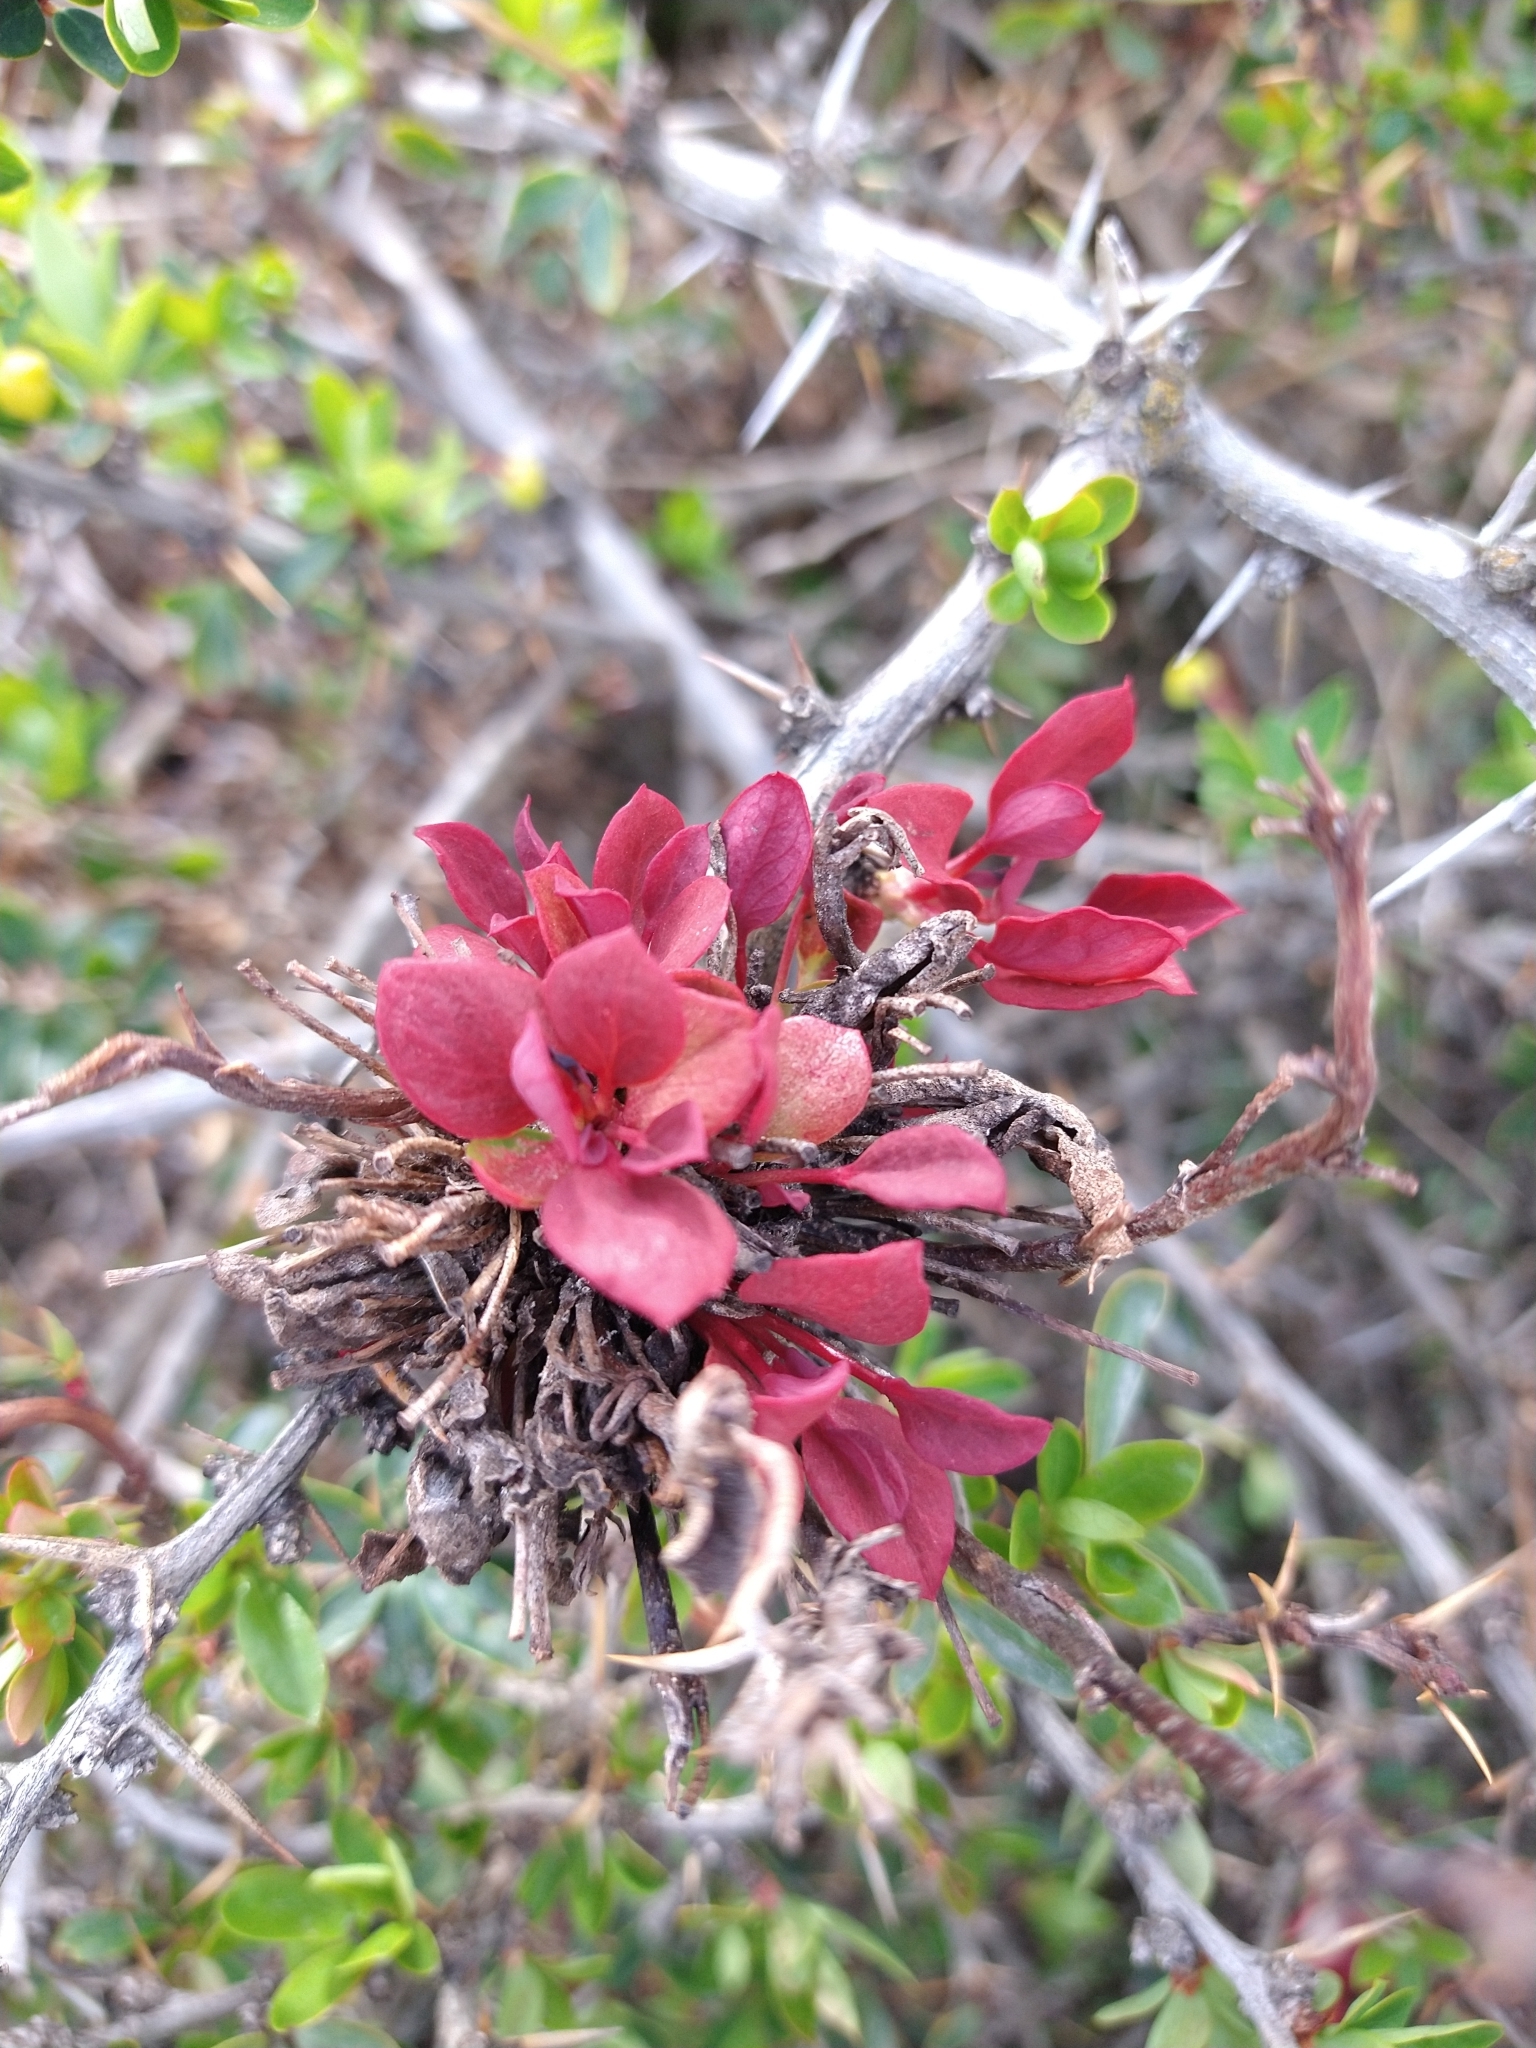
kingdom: Fungi
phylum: Basidiomycota
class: Pucciniomycetes
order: Pucciniales
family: Pucciniaceae
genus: Puccinia
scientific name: Puccinia magellanica
